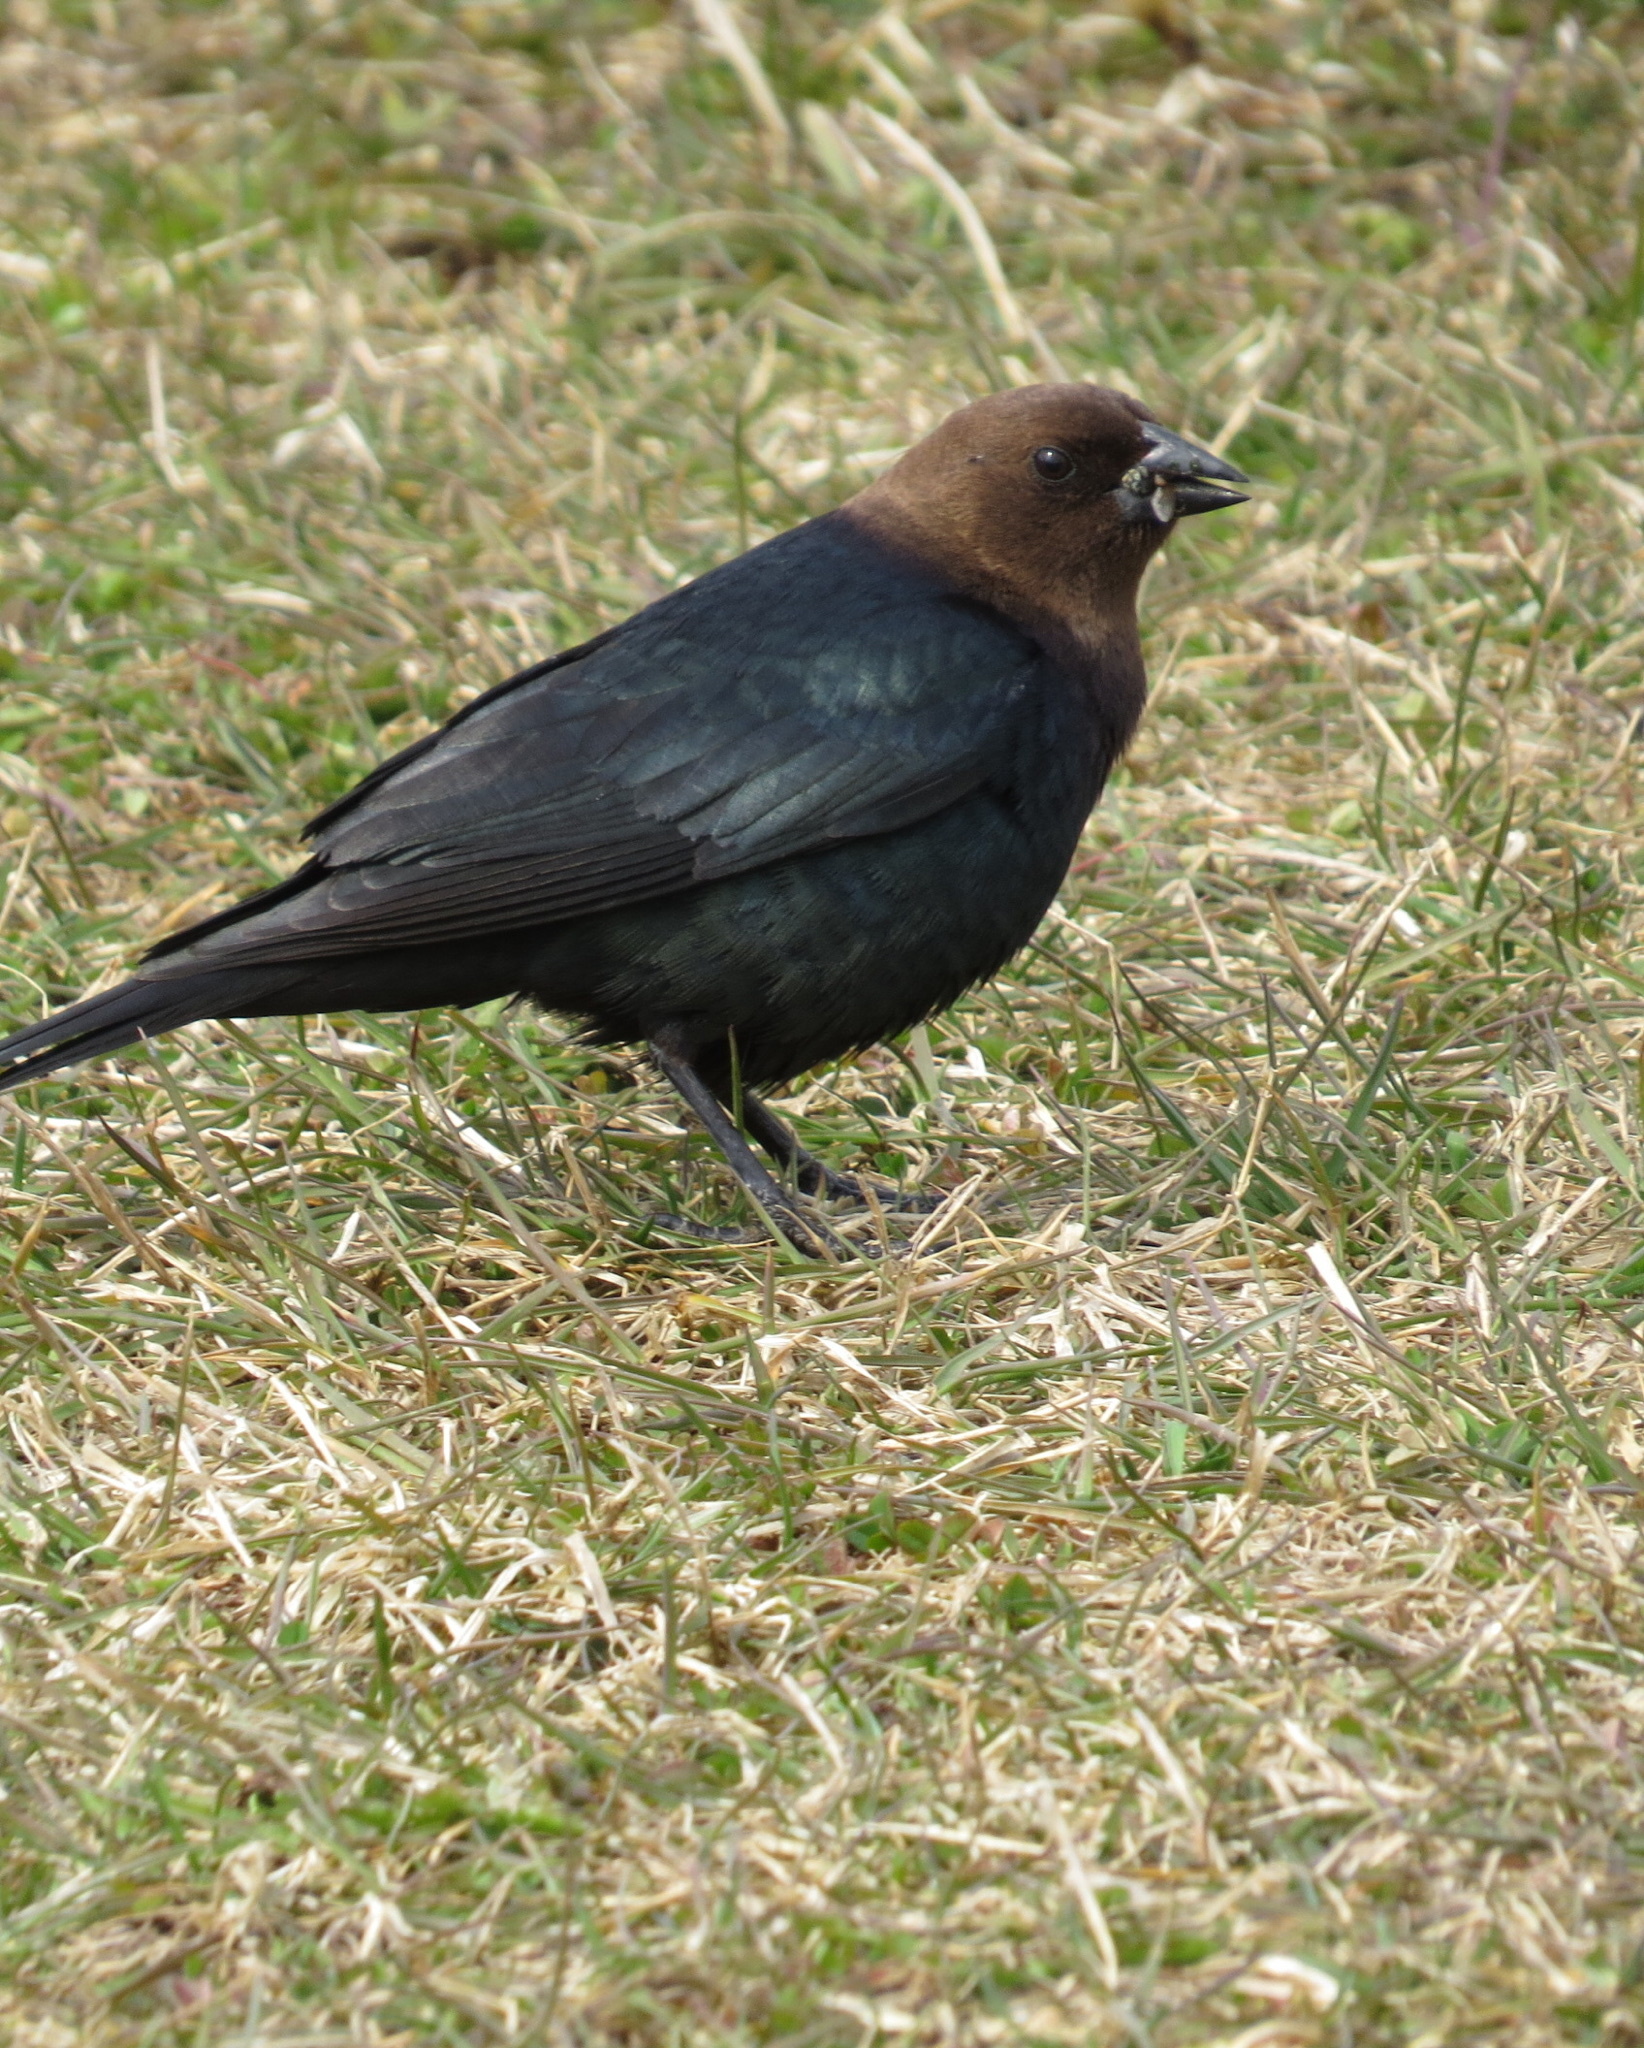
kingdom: Animalia
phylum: Chordata
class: Aves
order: Passeriformes
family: Icteridae
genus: Molothrus
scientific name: Molothrus ater
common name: Brown-headed cowbird
